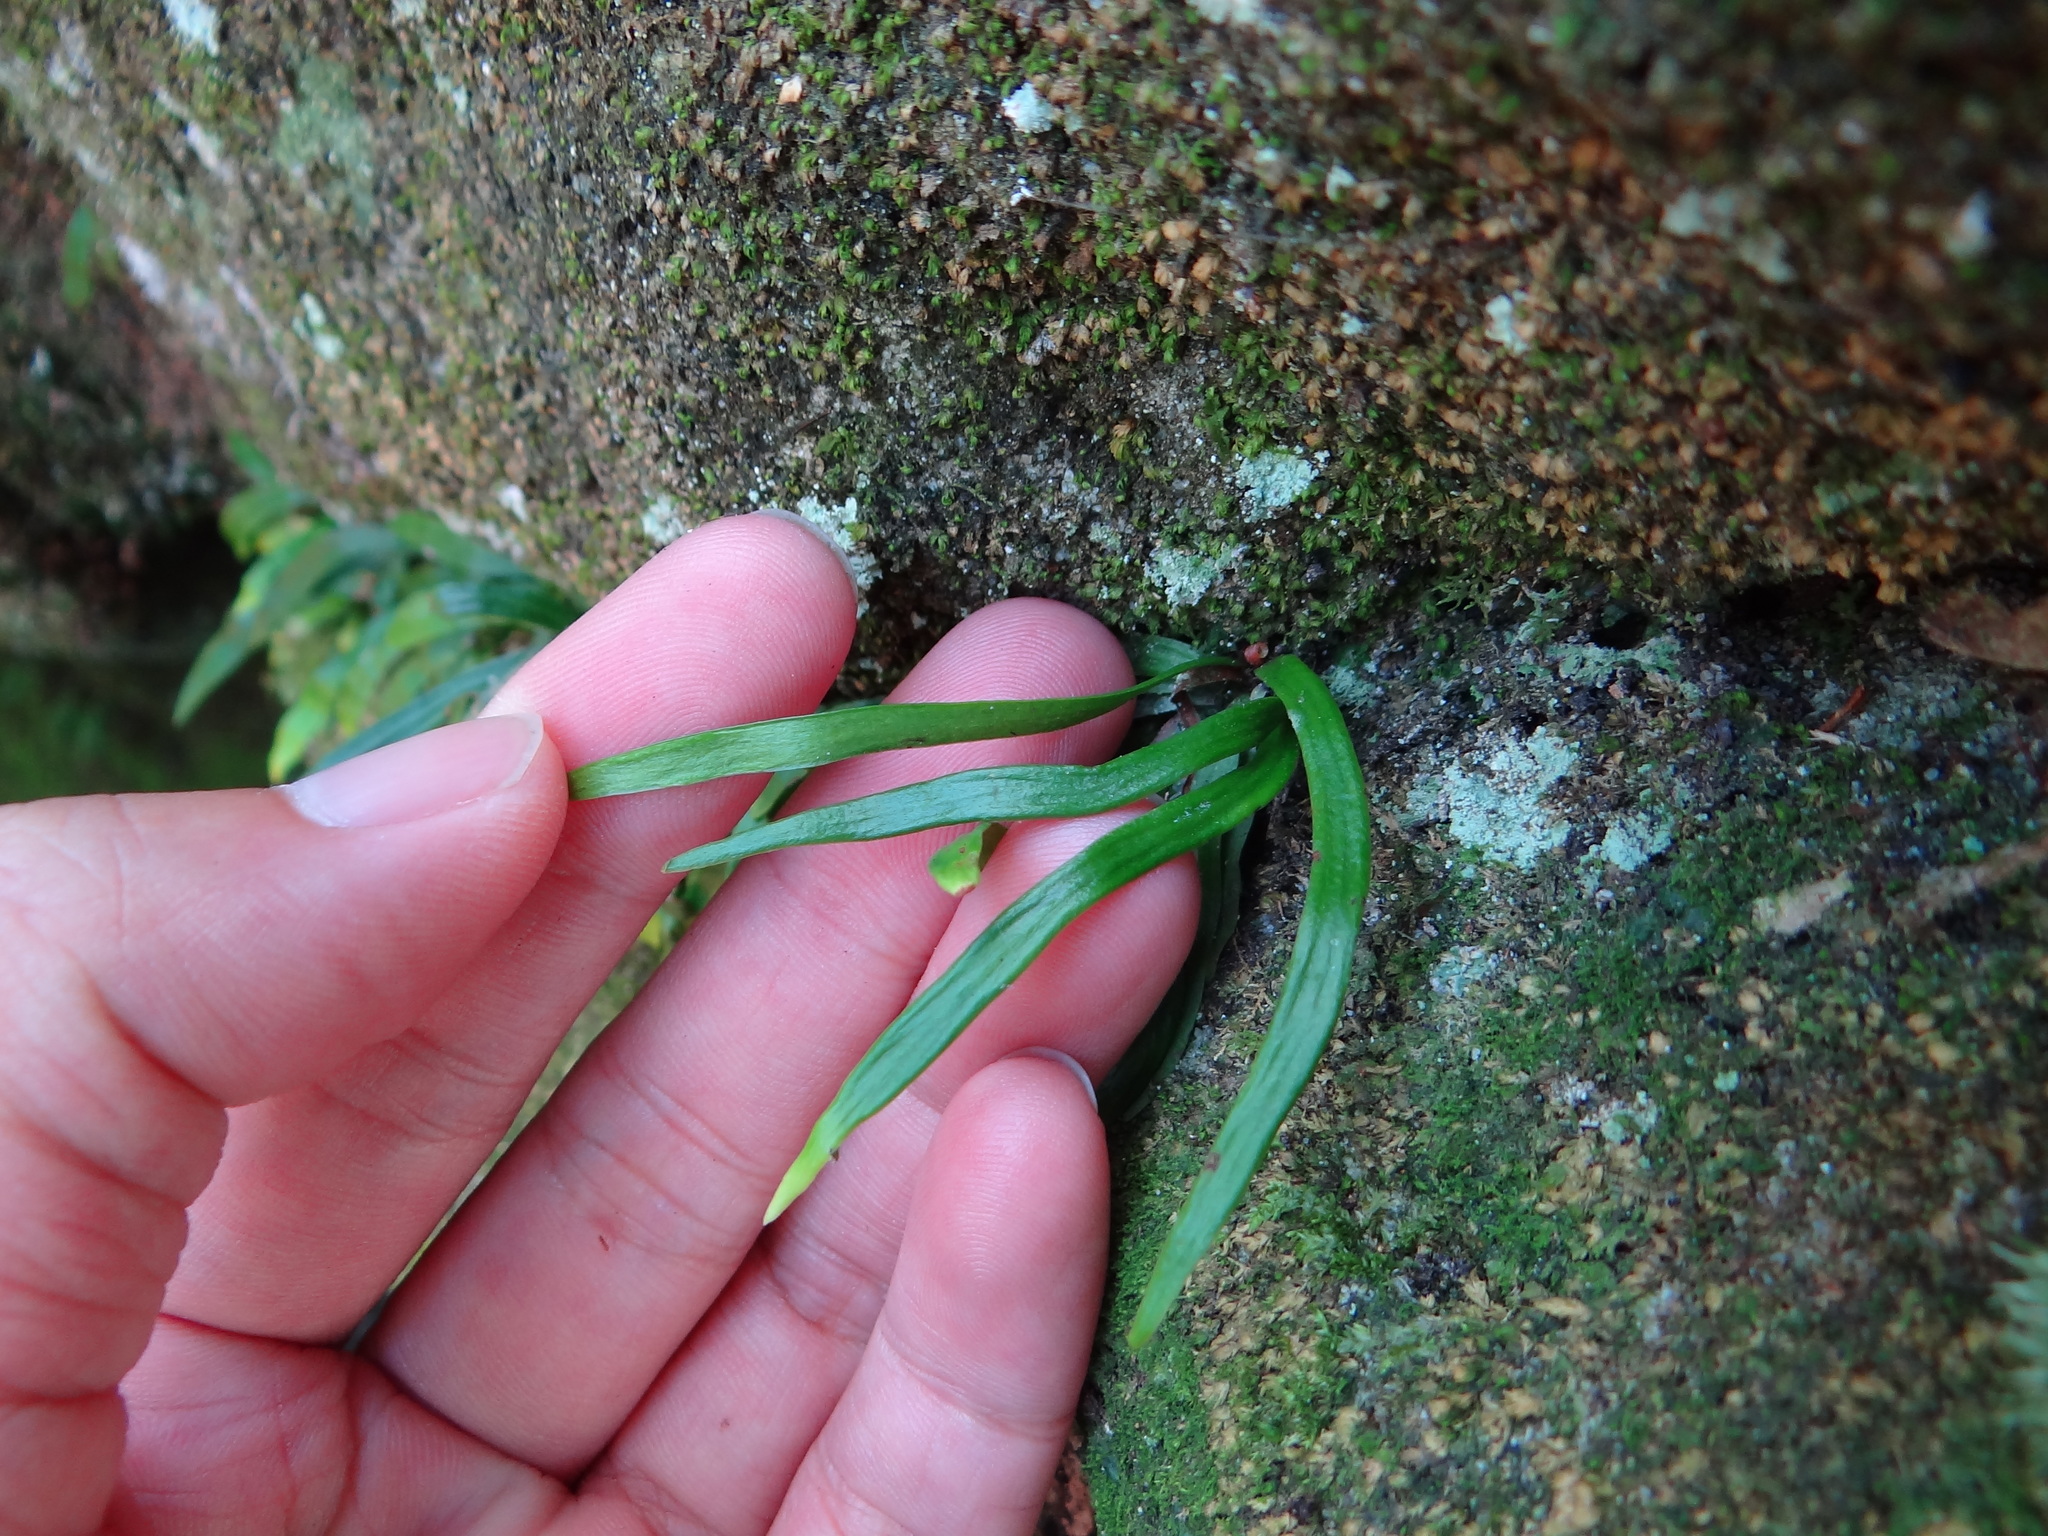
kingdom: Plantae
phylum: Tracheophyta
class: Polypodiopsida
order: Polypodiales
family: Pteridaceae
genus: Haplopteris
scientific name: Haplopteris anguste-elongata
